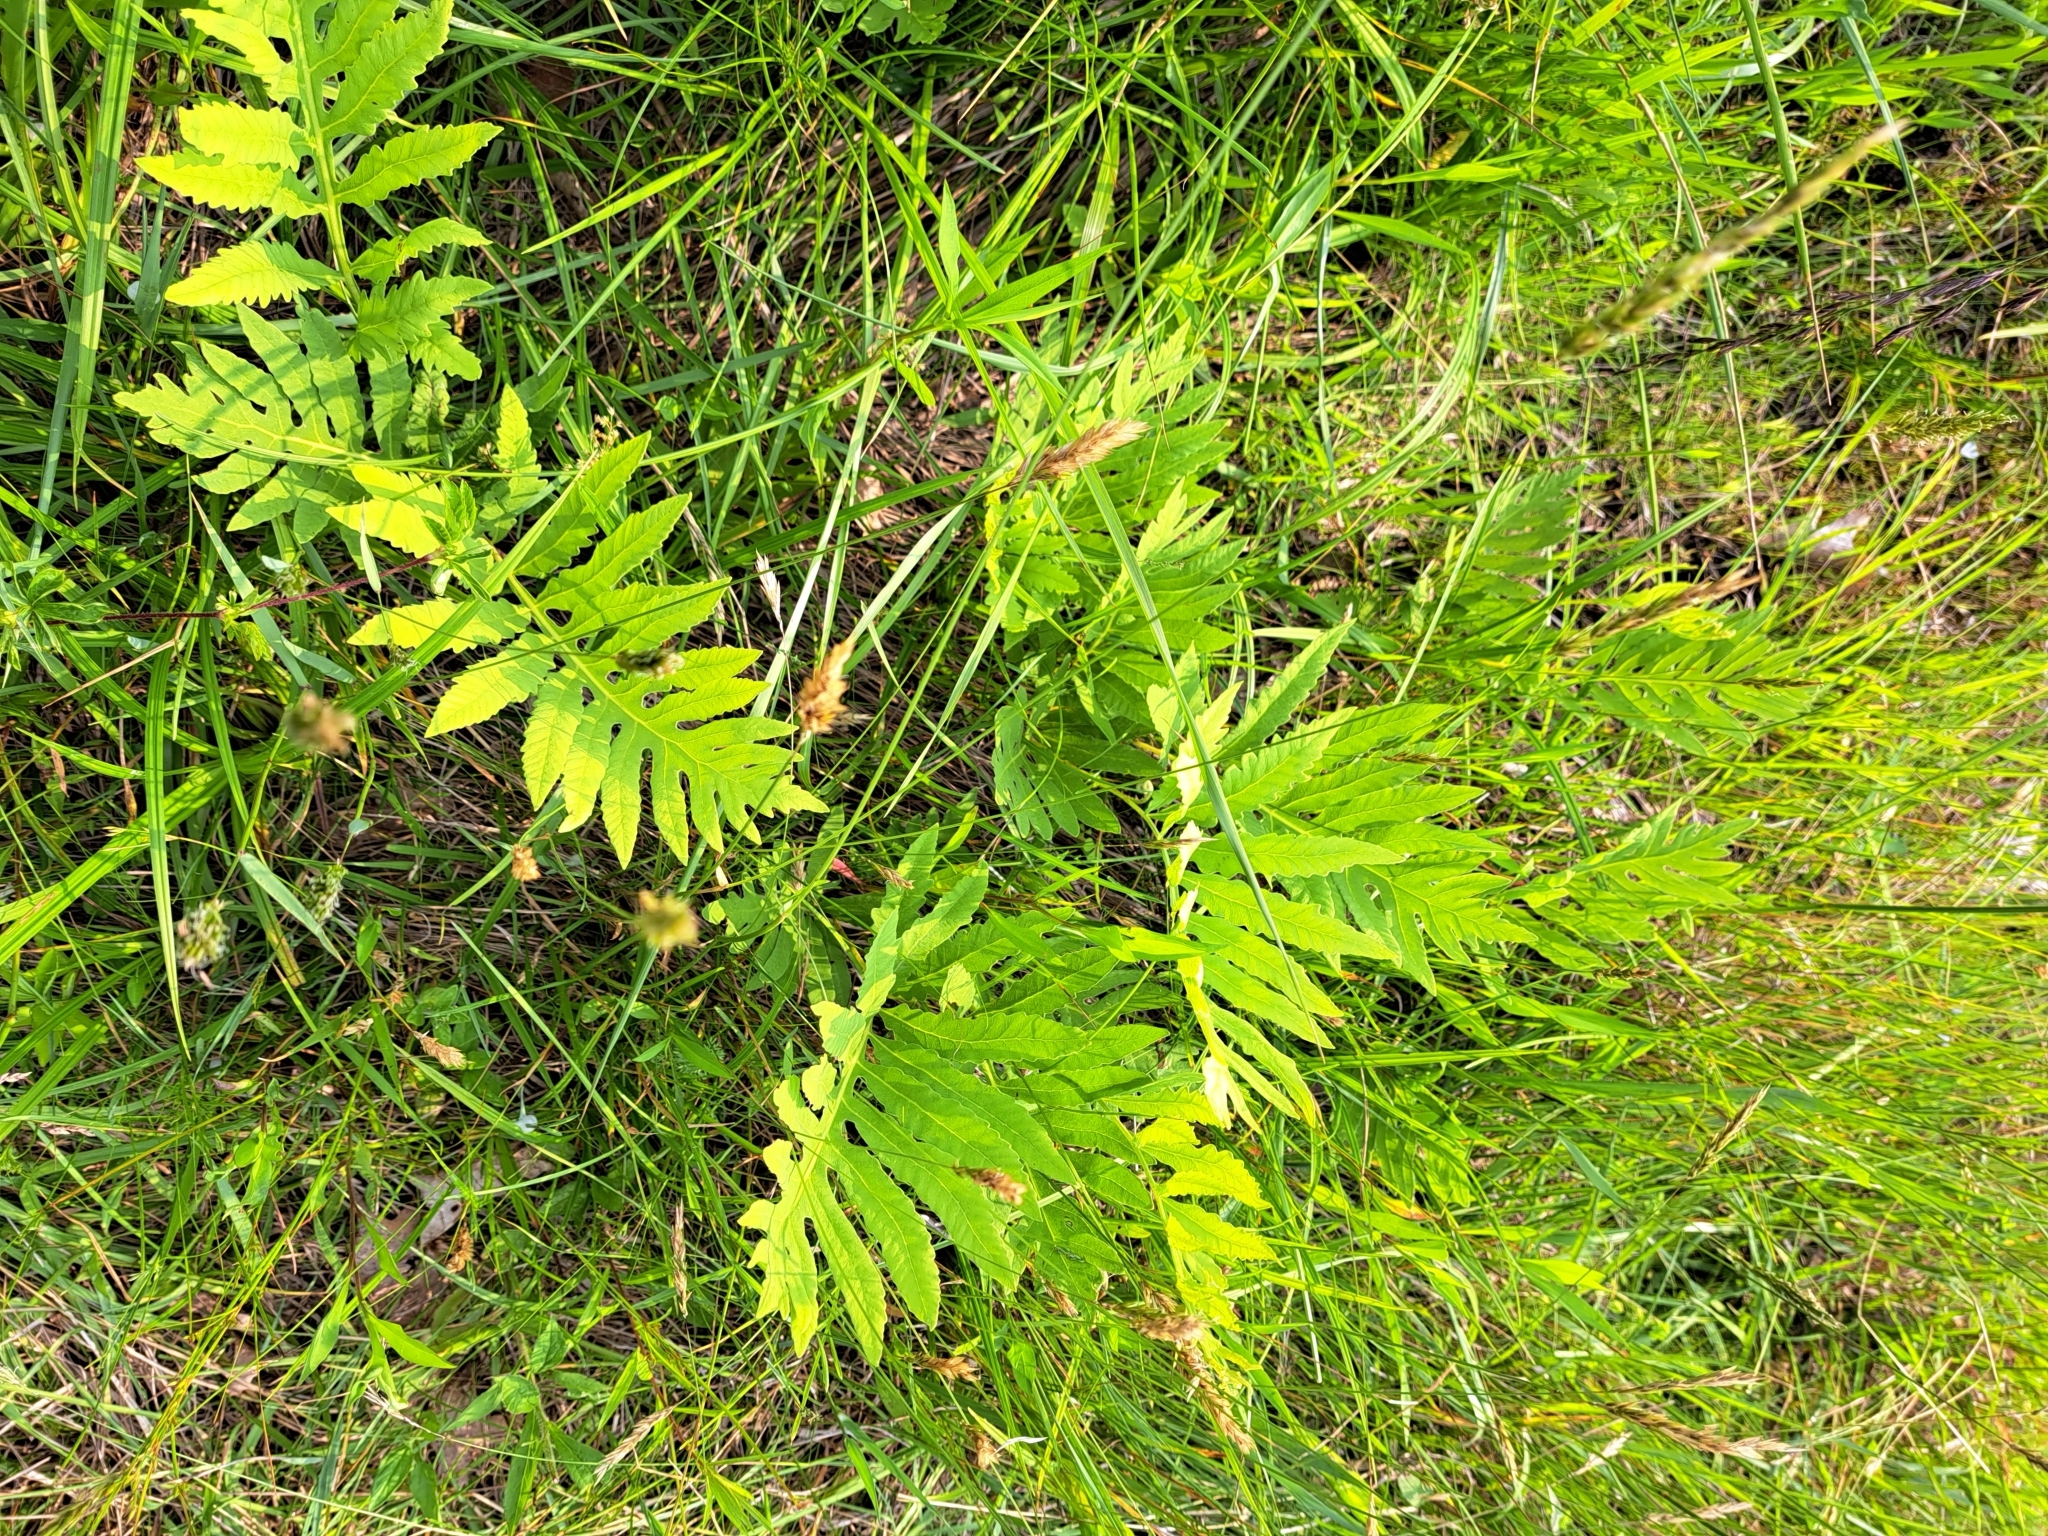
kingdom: Plantae
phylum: Tracheophyta
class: Polypodiopsida
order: Polypodiales
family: Onocleaceae
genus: Onoclea
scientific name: Onoclea sensibilis
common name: Sensitive fern
